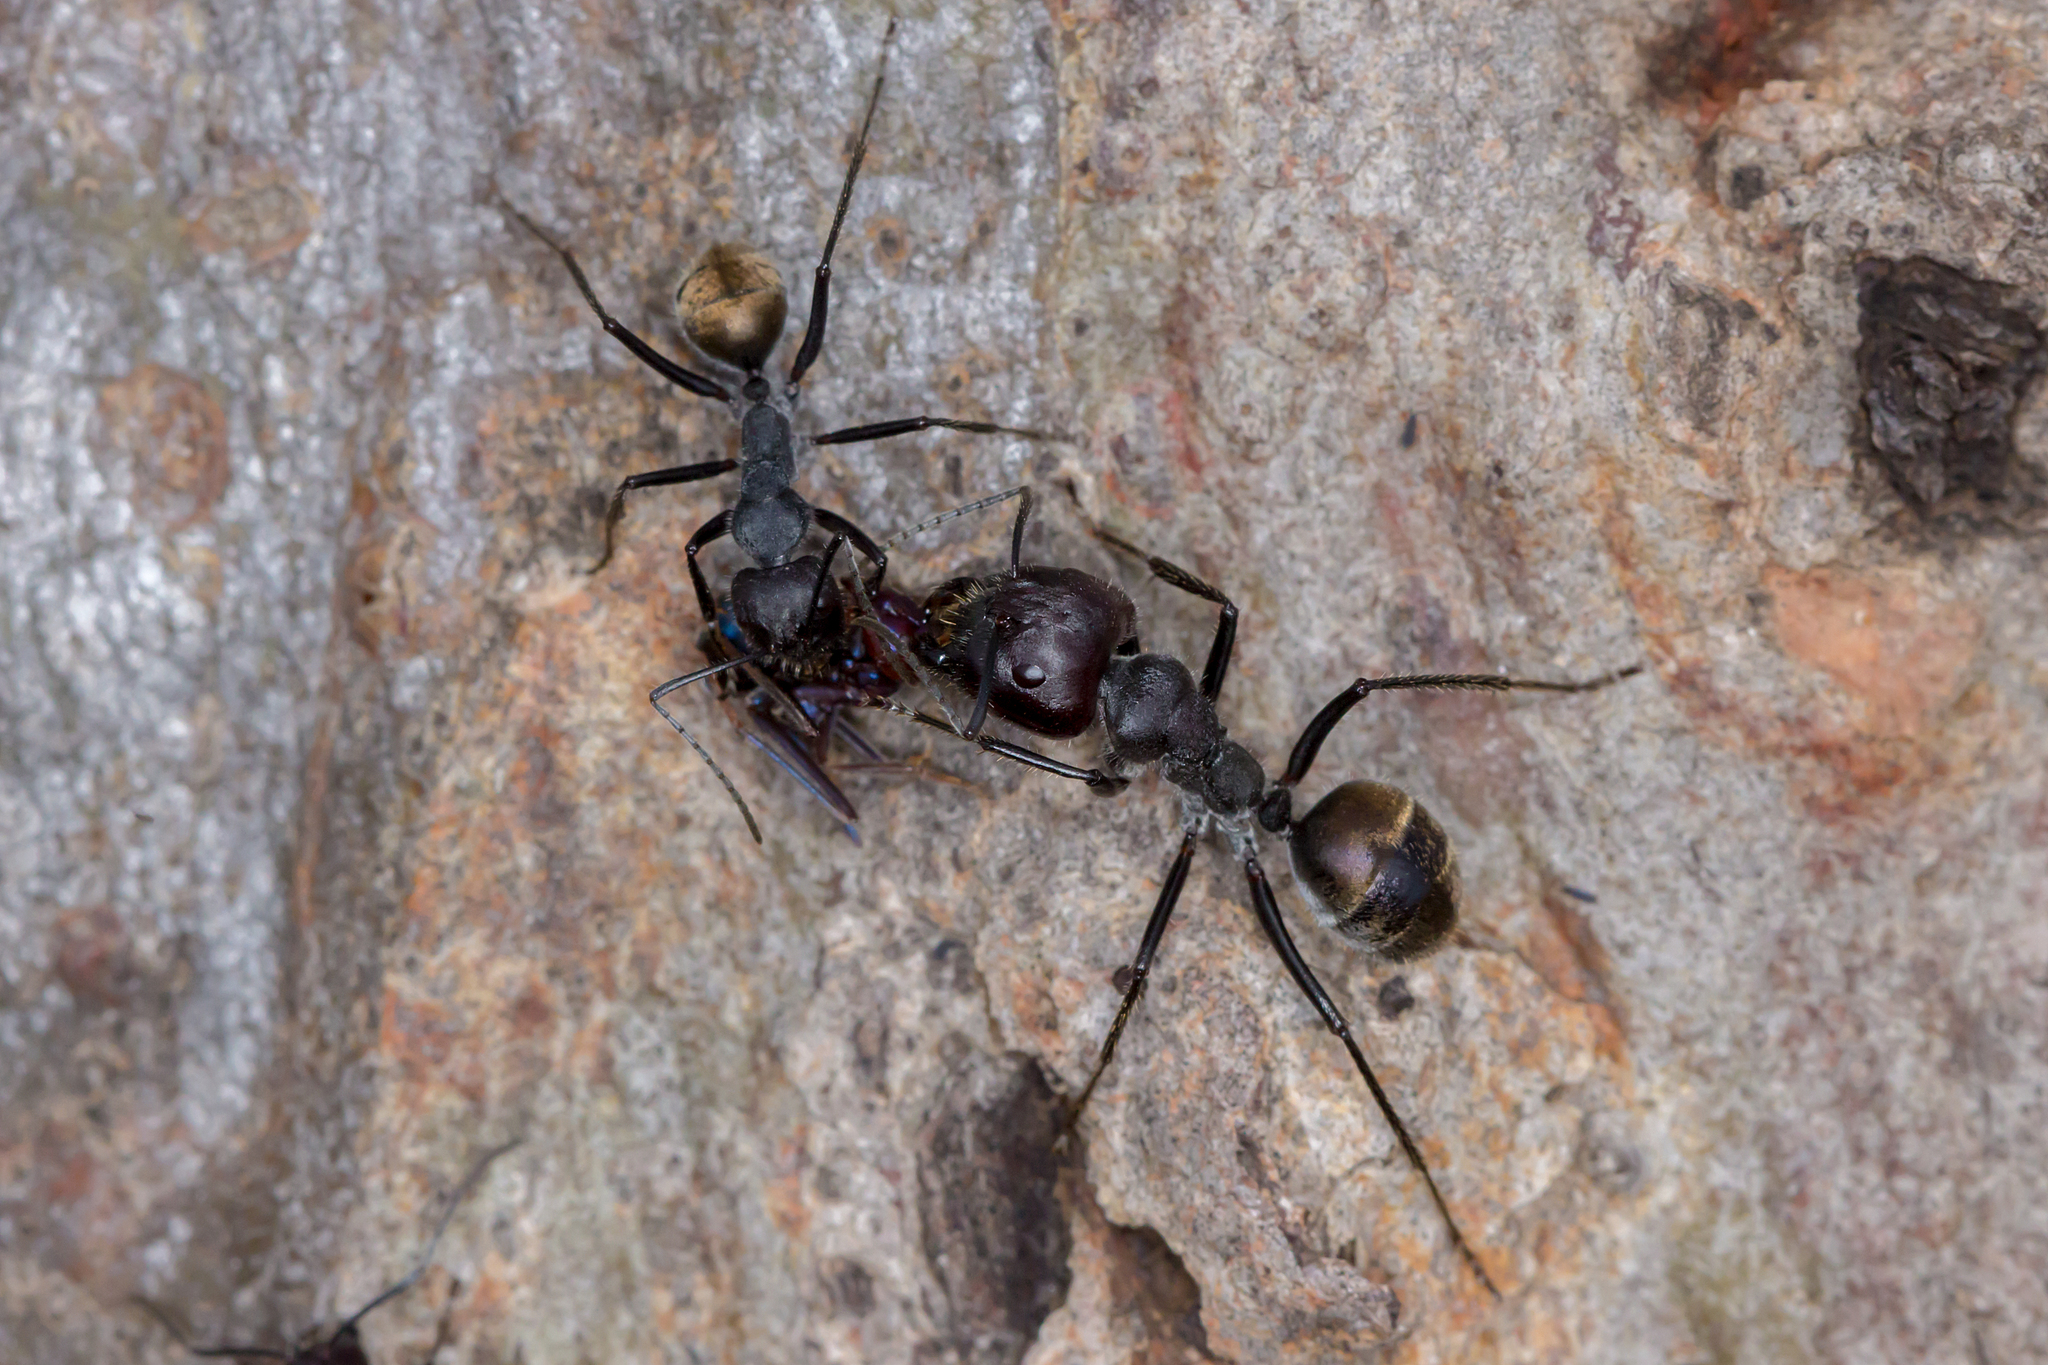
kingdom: Animalia
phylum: Arthropoda
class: Insecta
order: Hymenoptera
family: Formicidae
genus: Camponotus
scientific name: Camponotus suffusus
